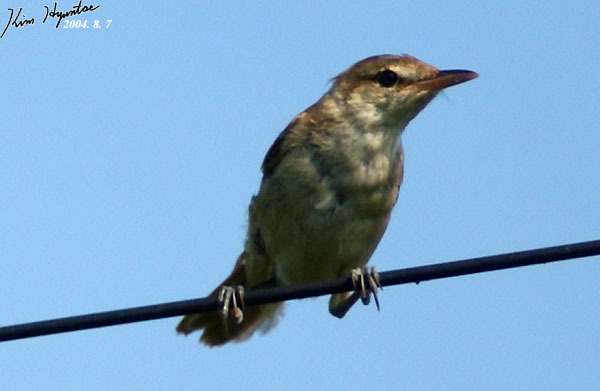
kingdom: Animalia
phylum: Chordata
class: Aves
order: Passeriformes
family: Acrocephalidae
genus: Acrocephalus
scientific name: Acrocephalus orientalis
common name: Oriental reed warbler
